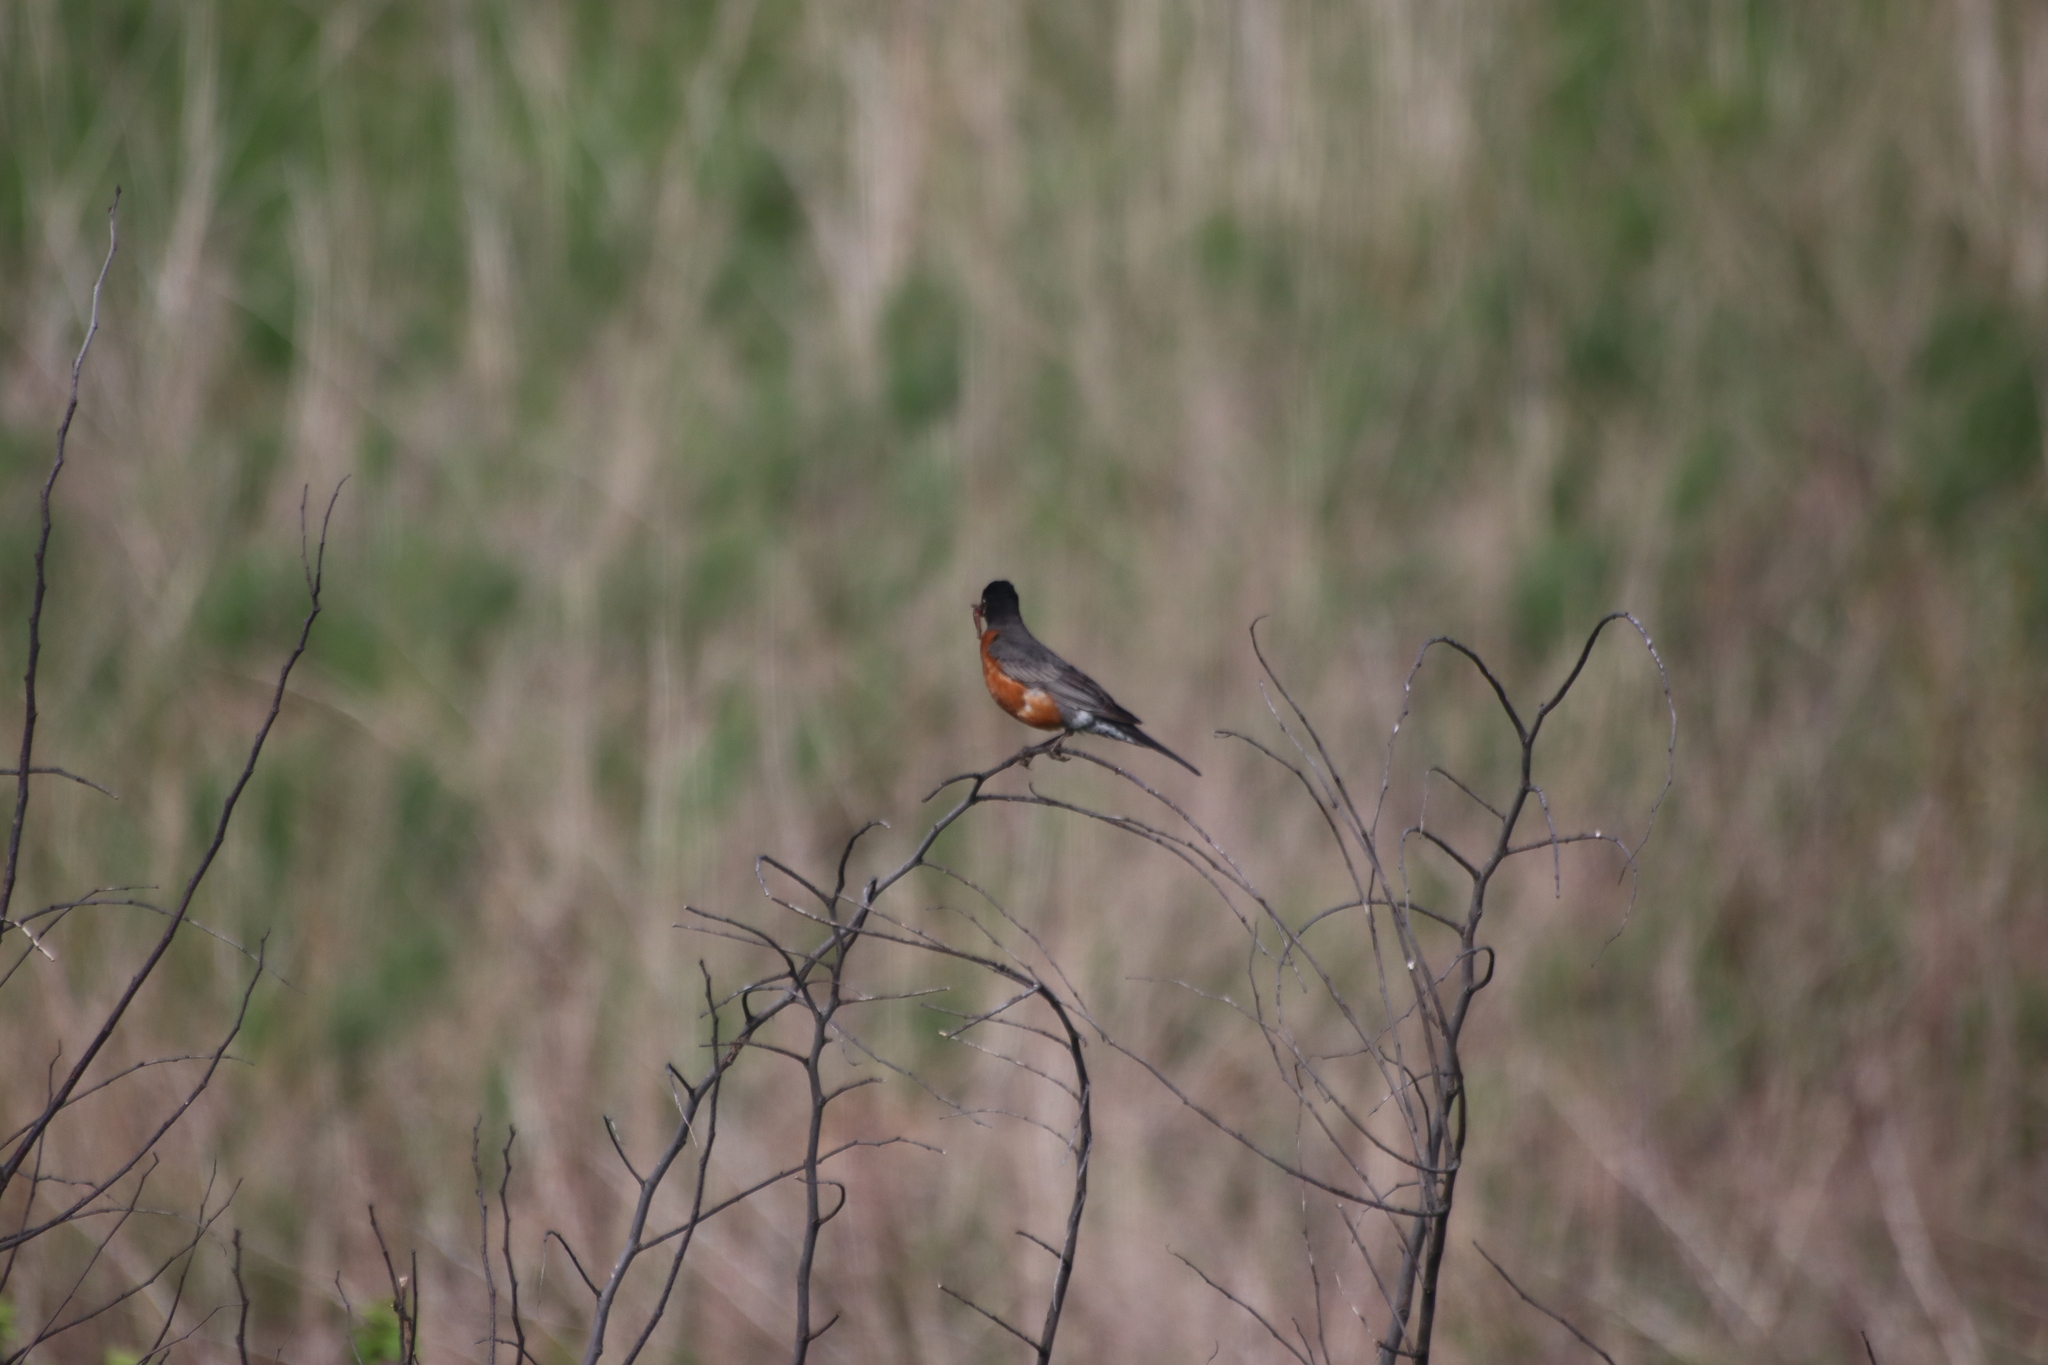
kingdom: Animalia
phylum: Chordata
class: Aves
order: Passeriformes
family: Turdidae
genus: Turdus
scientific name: Turdus migratorius
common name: American robin
